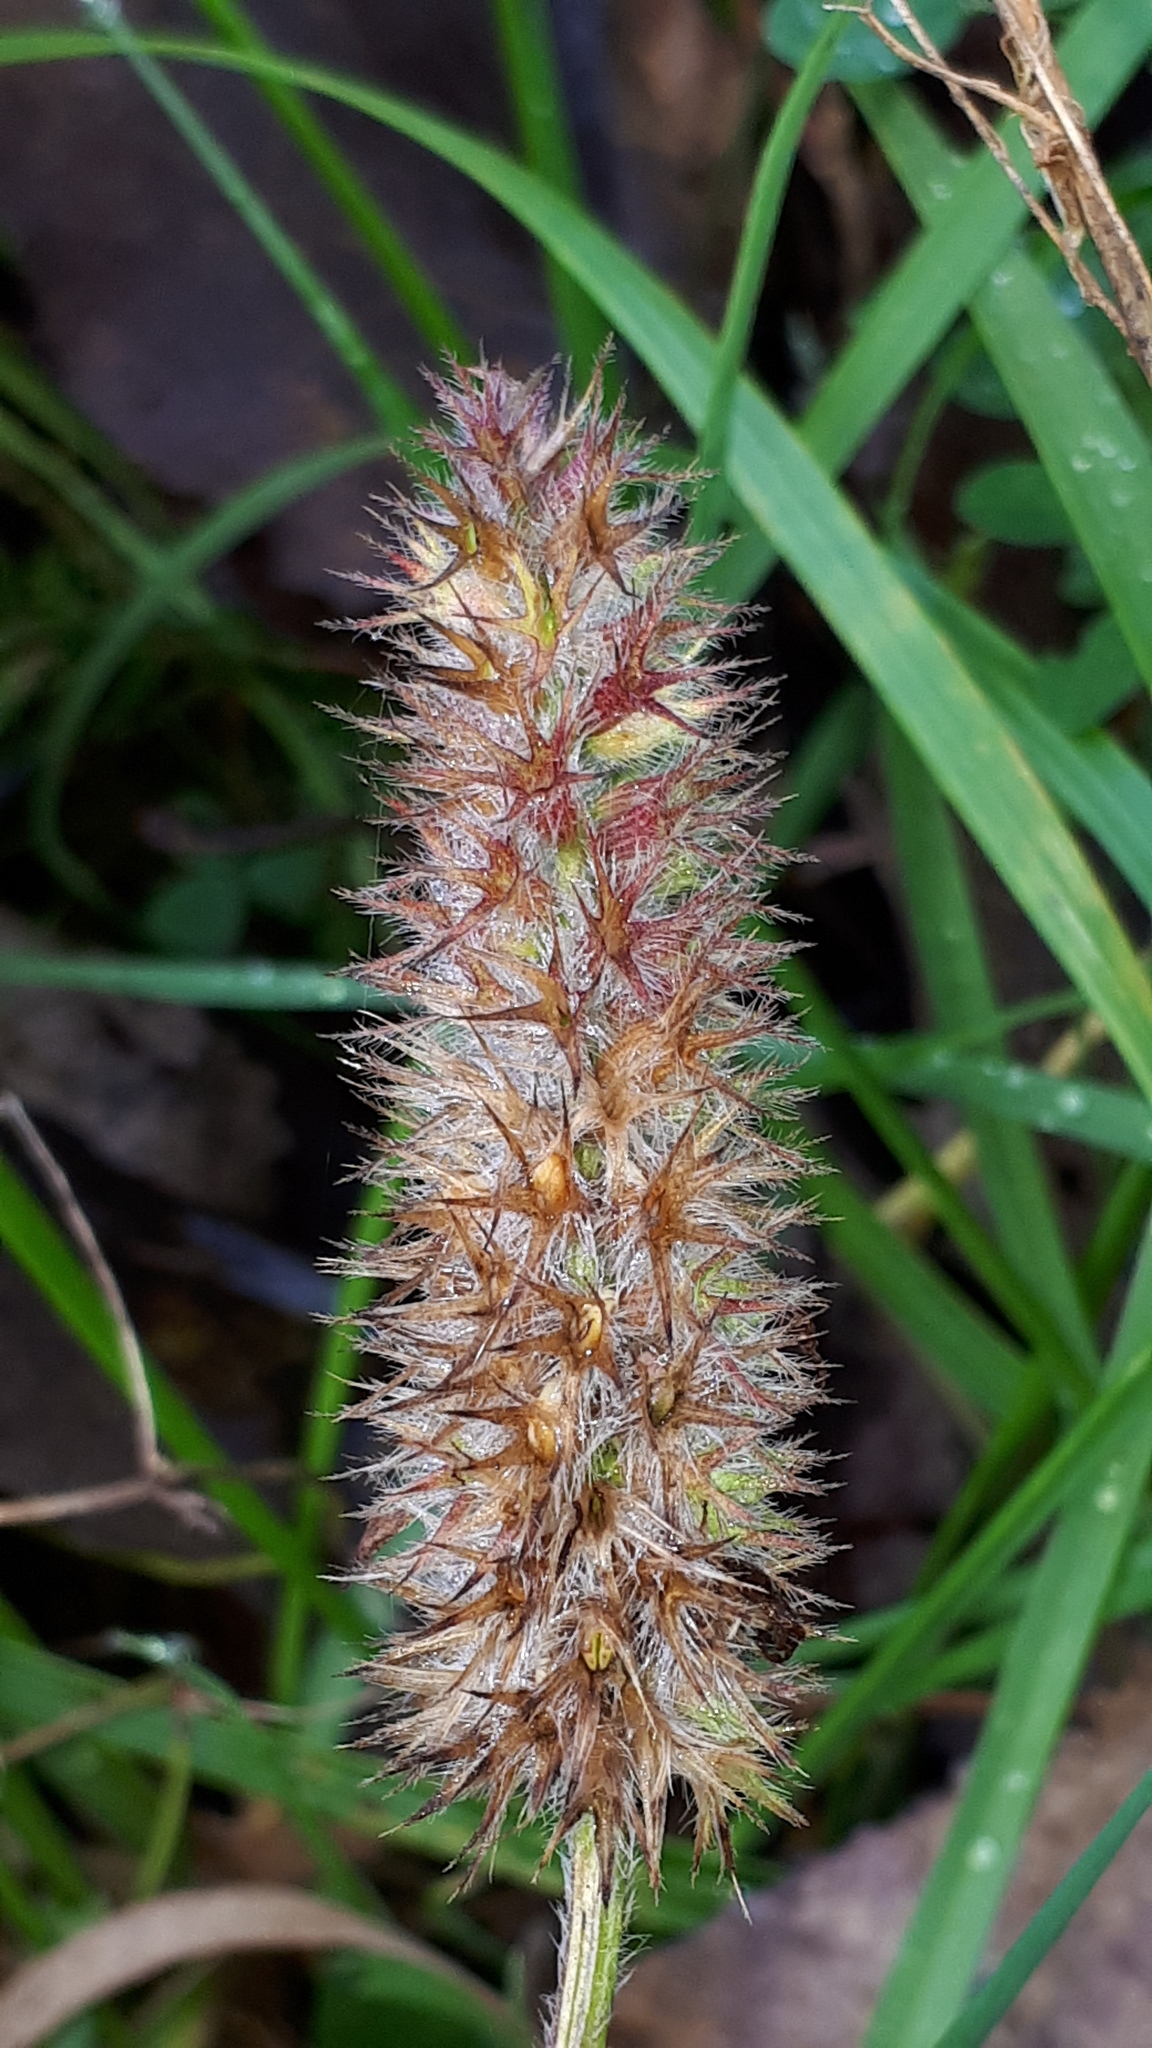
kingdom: Plantae
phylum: Tracheophyta
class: Magnoliopsida
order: Fabales
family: Fabaceae
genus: Trifolium
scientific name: Trifolium incarnatum
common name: Crimson clover
